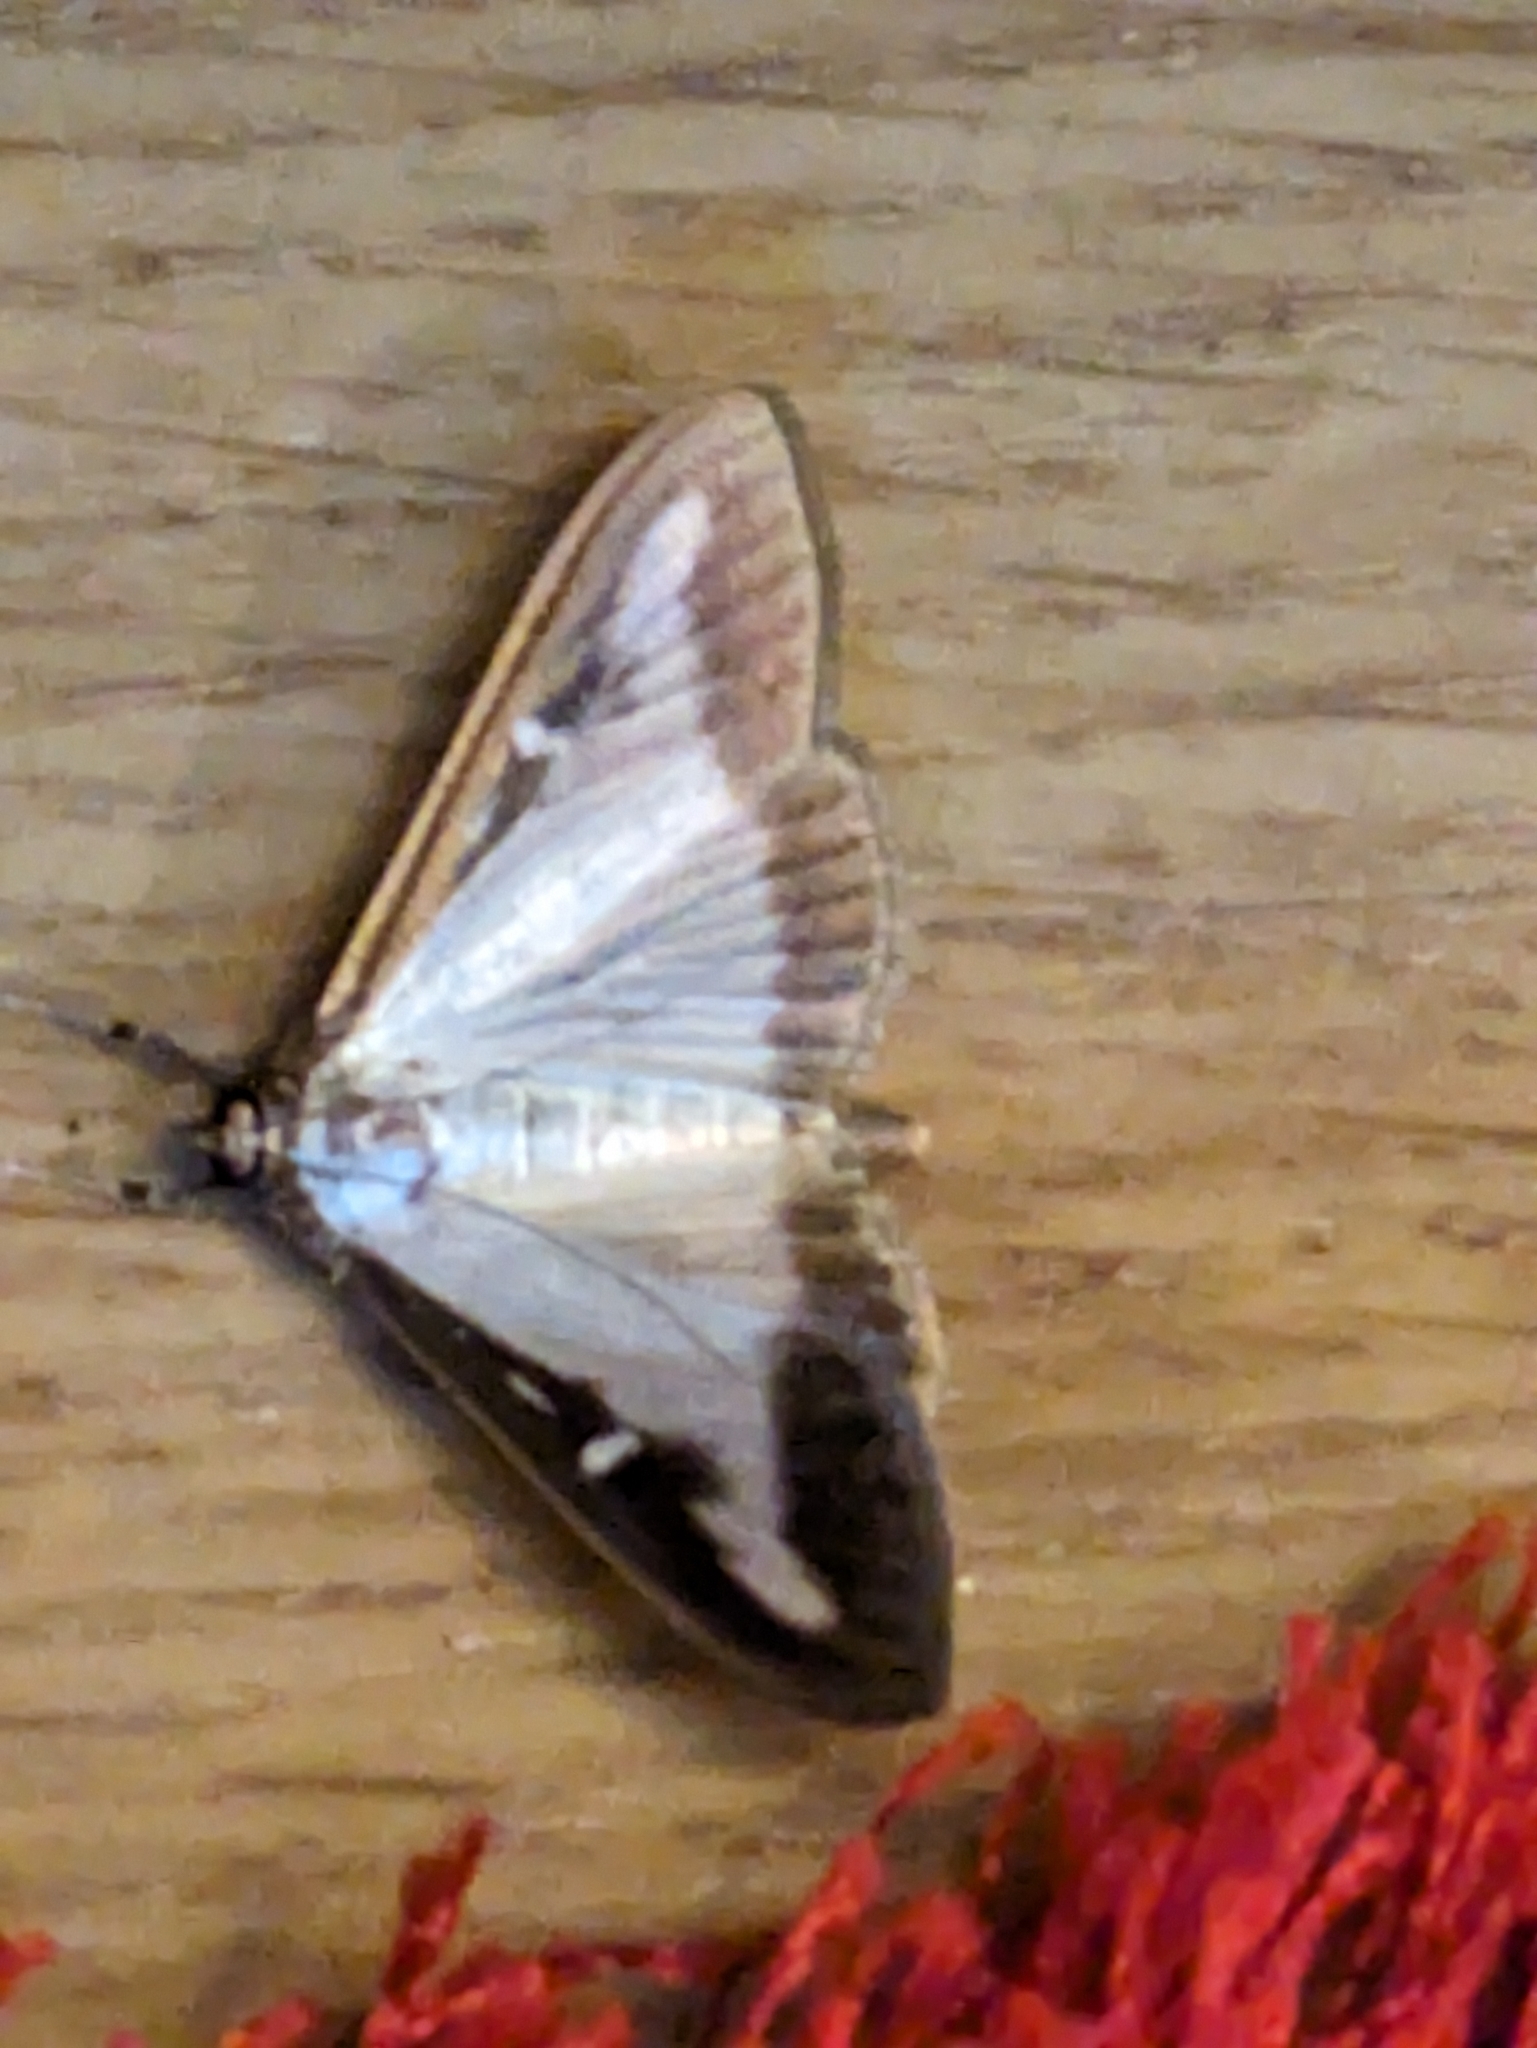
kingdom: Animalia
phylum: Arthropoda
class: Insecta
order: Lepidoptera
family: Crambidae
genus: Cydalima
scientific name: Cydalima perspectalis
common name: Box tree moth
